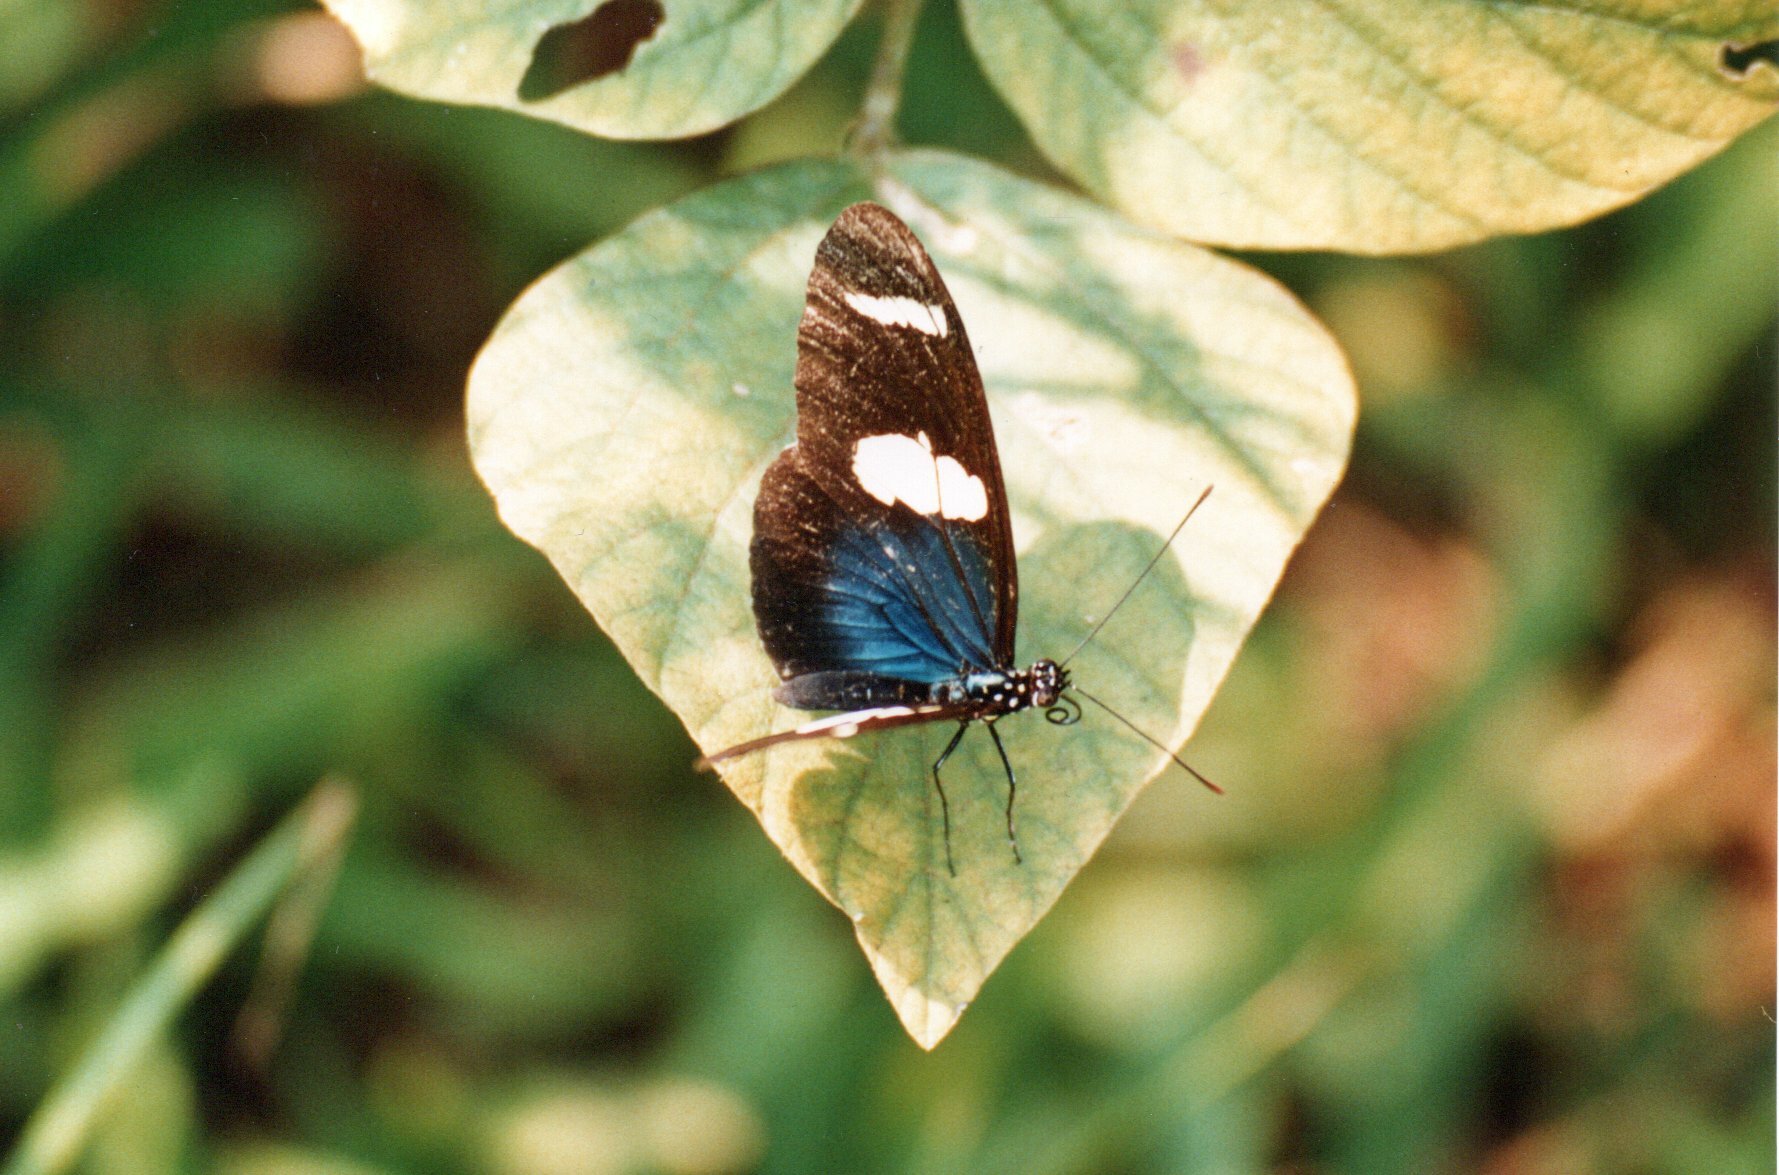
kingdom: Animalia
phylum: Arthropoda
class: Insecta
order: Lepidoptera
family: Nymphalidae
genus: Heliconius
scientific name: Heliconius wallacei
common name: Wallace's longwing
